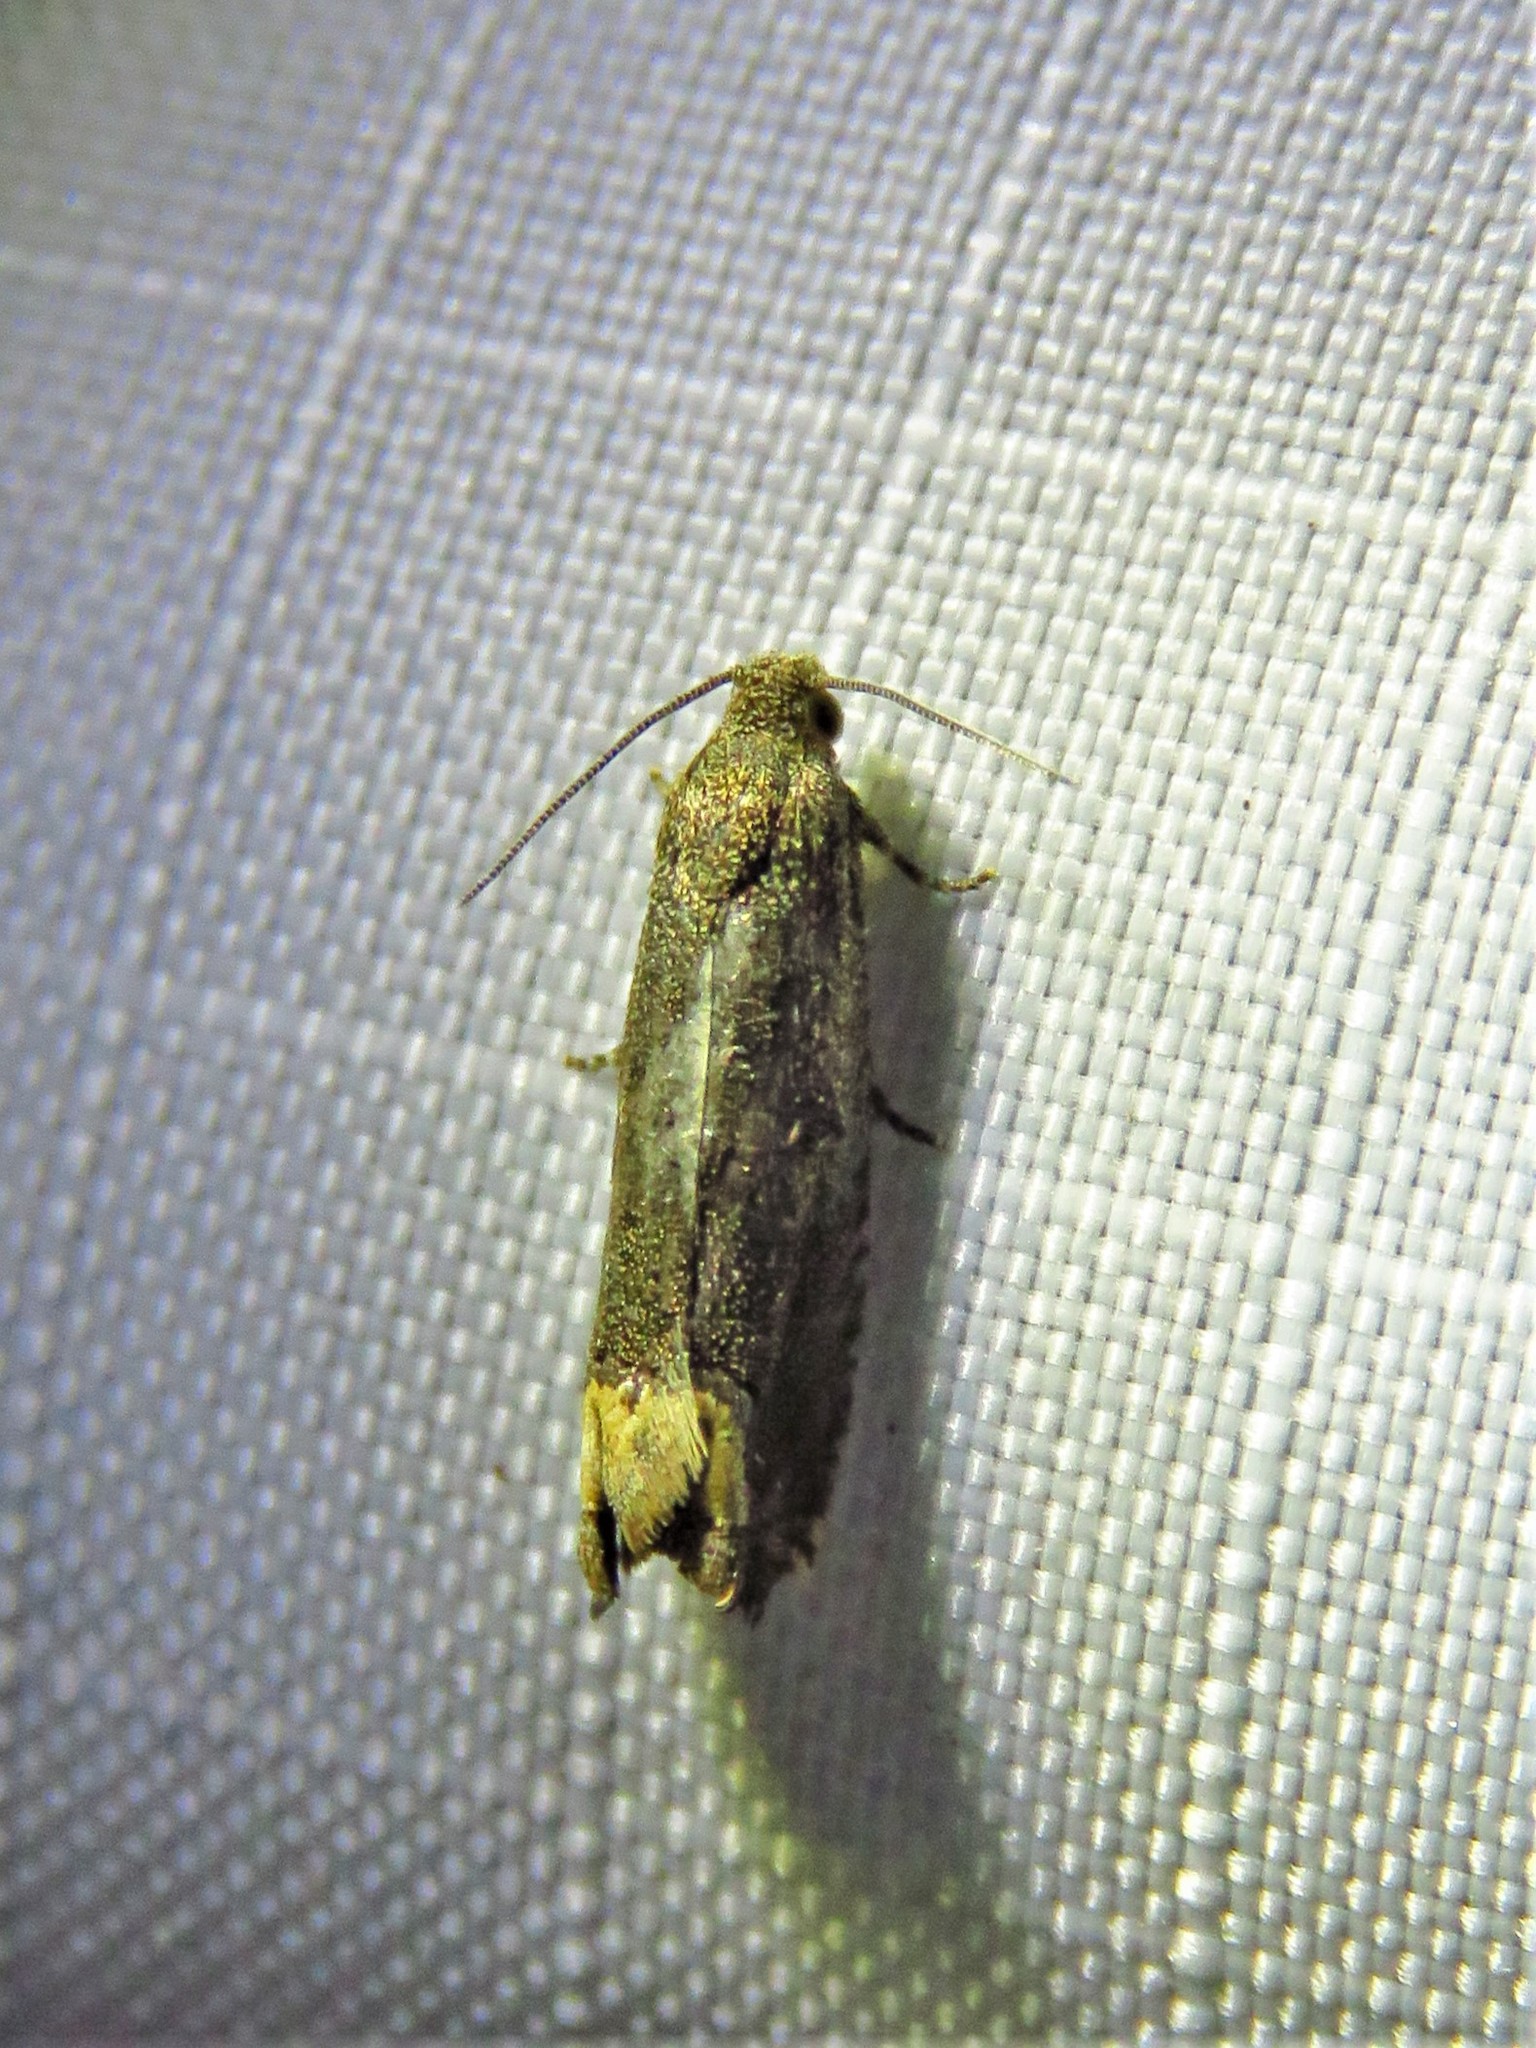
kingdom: Animalia
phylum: Arthropoda
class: Insecta
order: Lepidoptera
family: Tortricidae
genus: Epiblema
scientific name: Epiblema strenuana
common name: Ragweed borer moth
